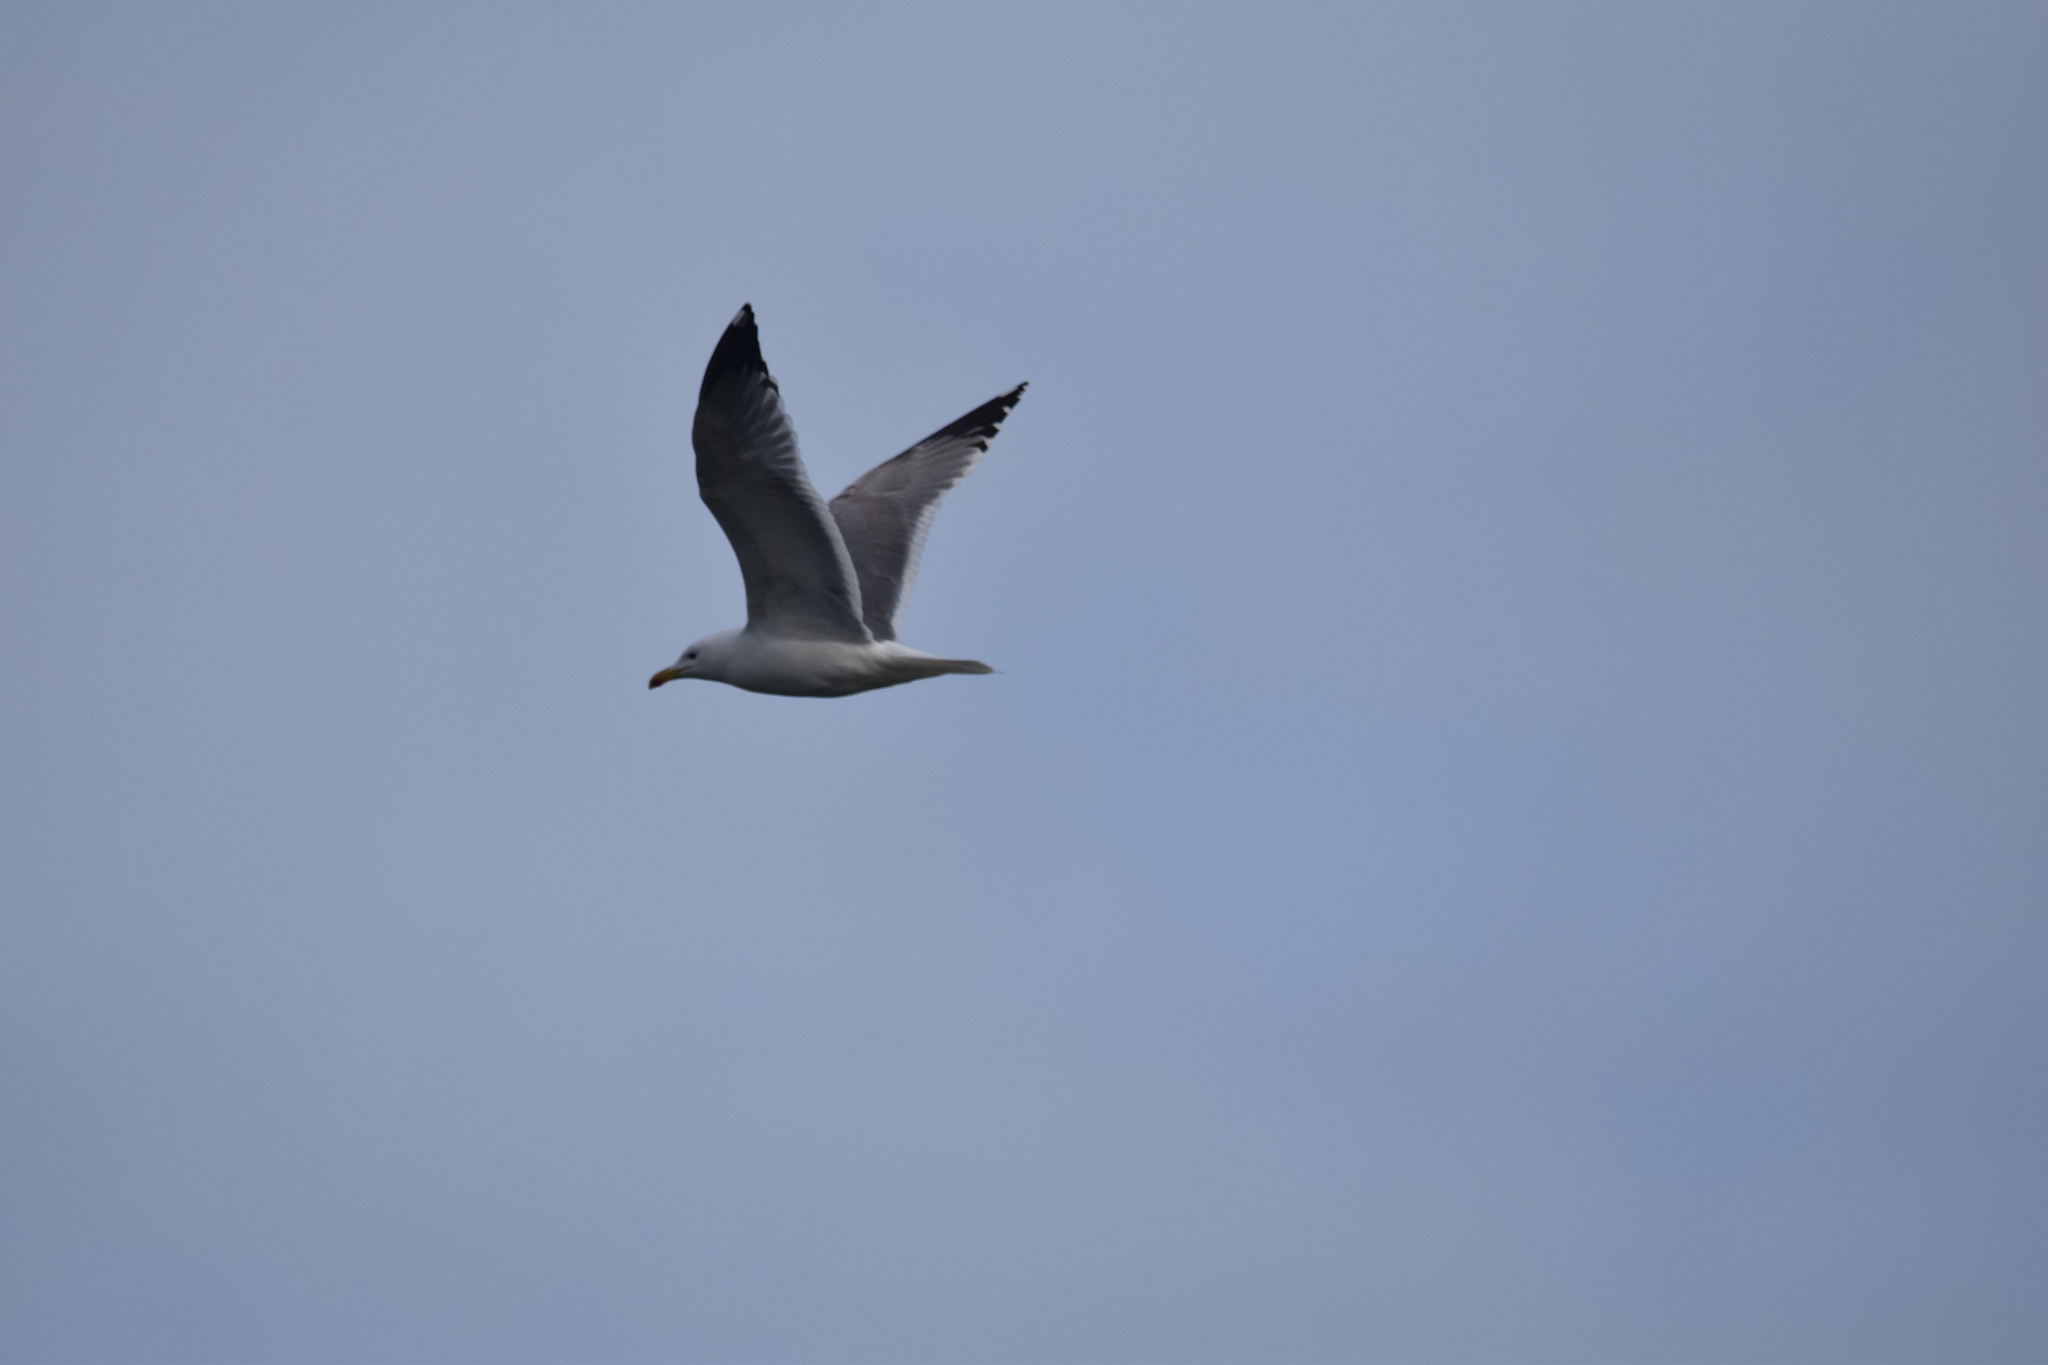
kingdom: Animalia
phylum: Chordata
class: Aves
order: Charadriiformes
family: Laridae
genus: Larus
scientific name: Larus michahellis
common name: Yellow-legged gull
